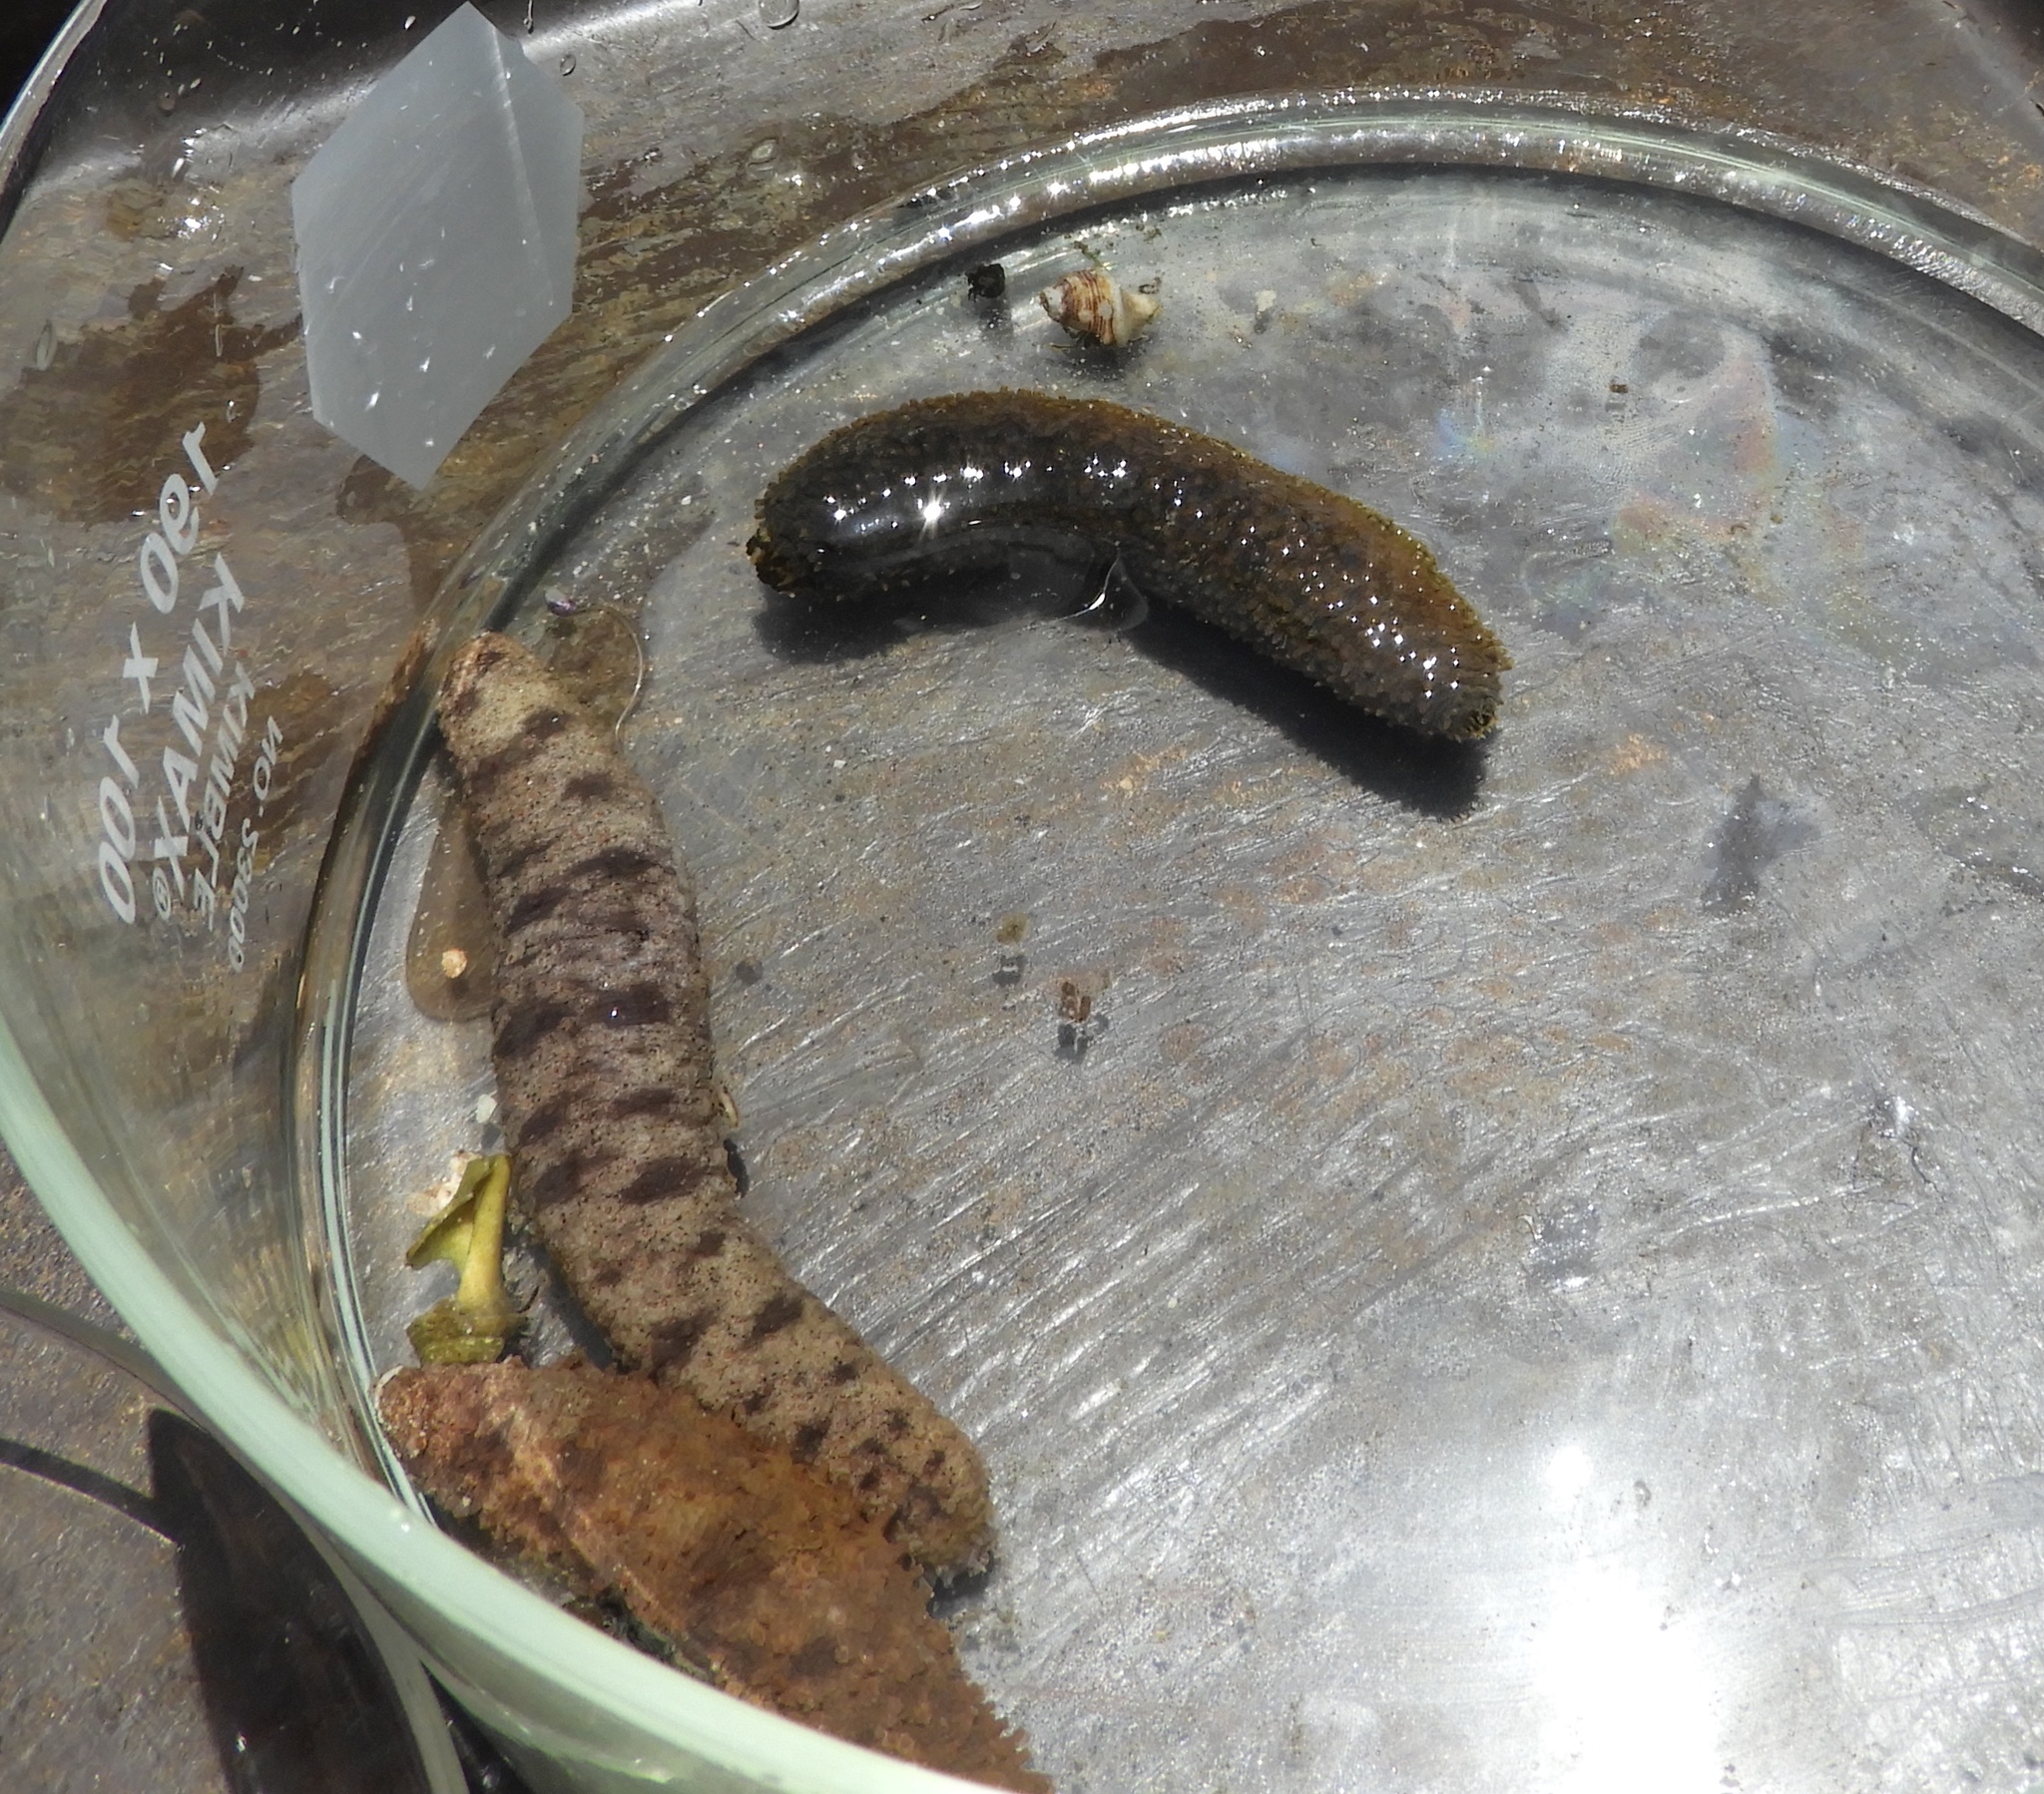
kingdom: Animalia
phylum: Echinodermata
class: Holothuroidea
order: Holothuriida
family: Holothuriidae
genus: Holothuria
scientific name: Holothuria lubrica
